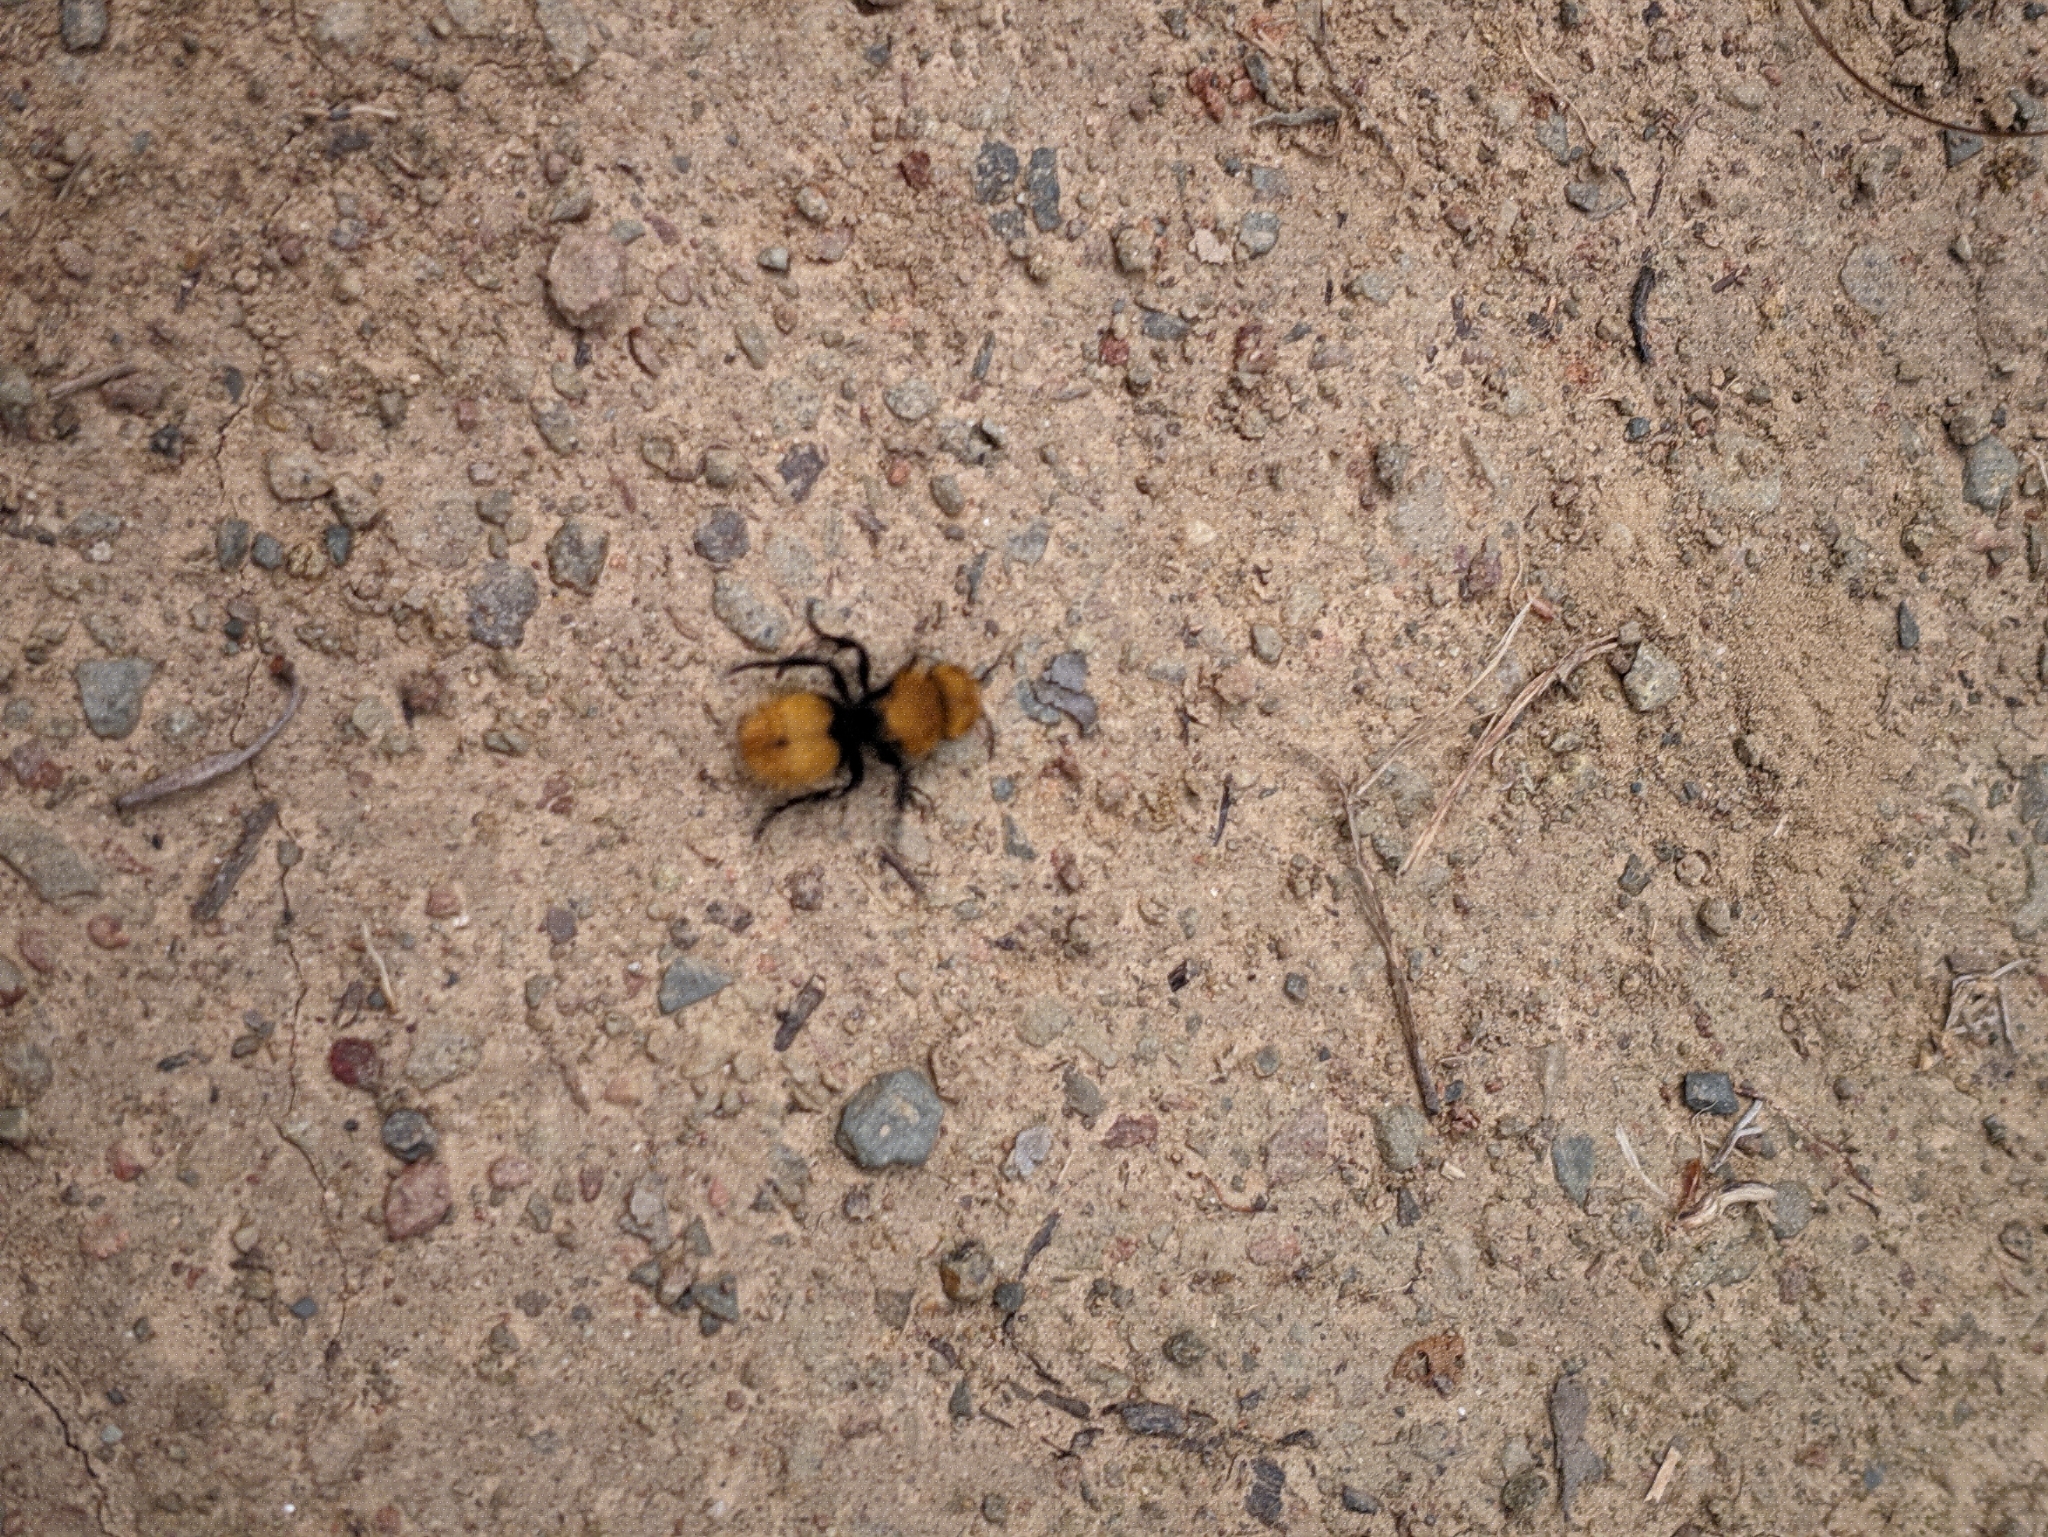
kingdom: Animalia
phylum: Arthropoda
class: Insecta
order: Hymenoptera
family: Mutillidae
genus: Dasymutilla
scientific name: Dasymutilla
